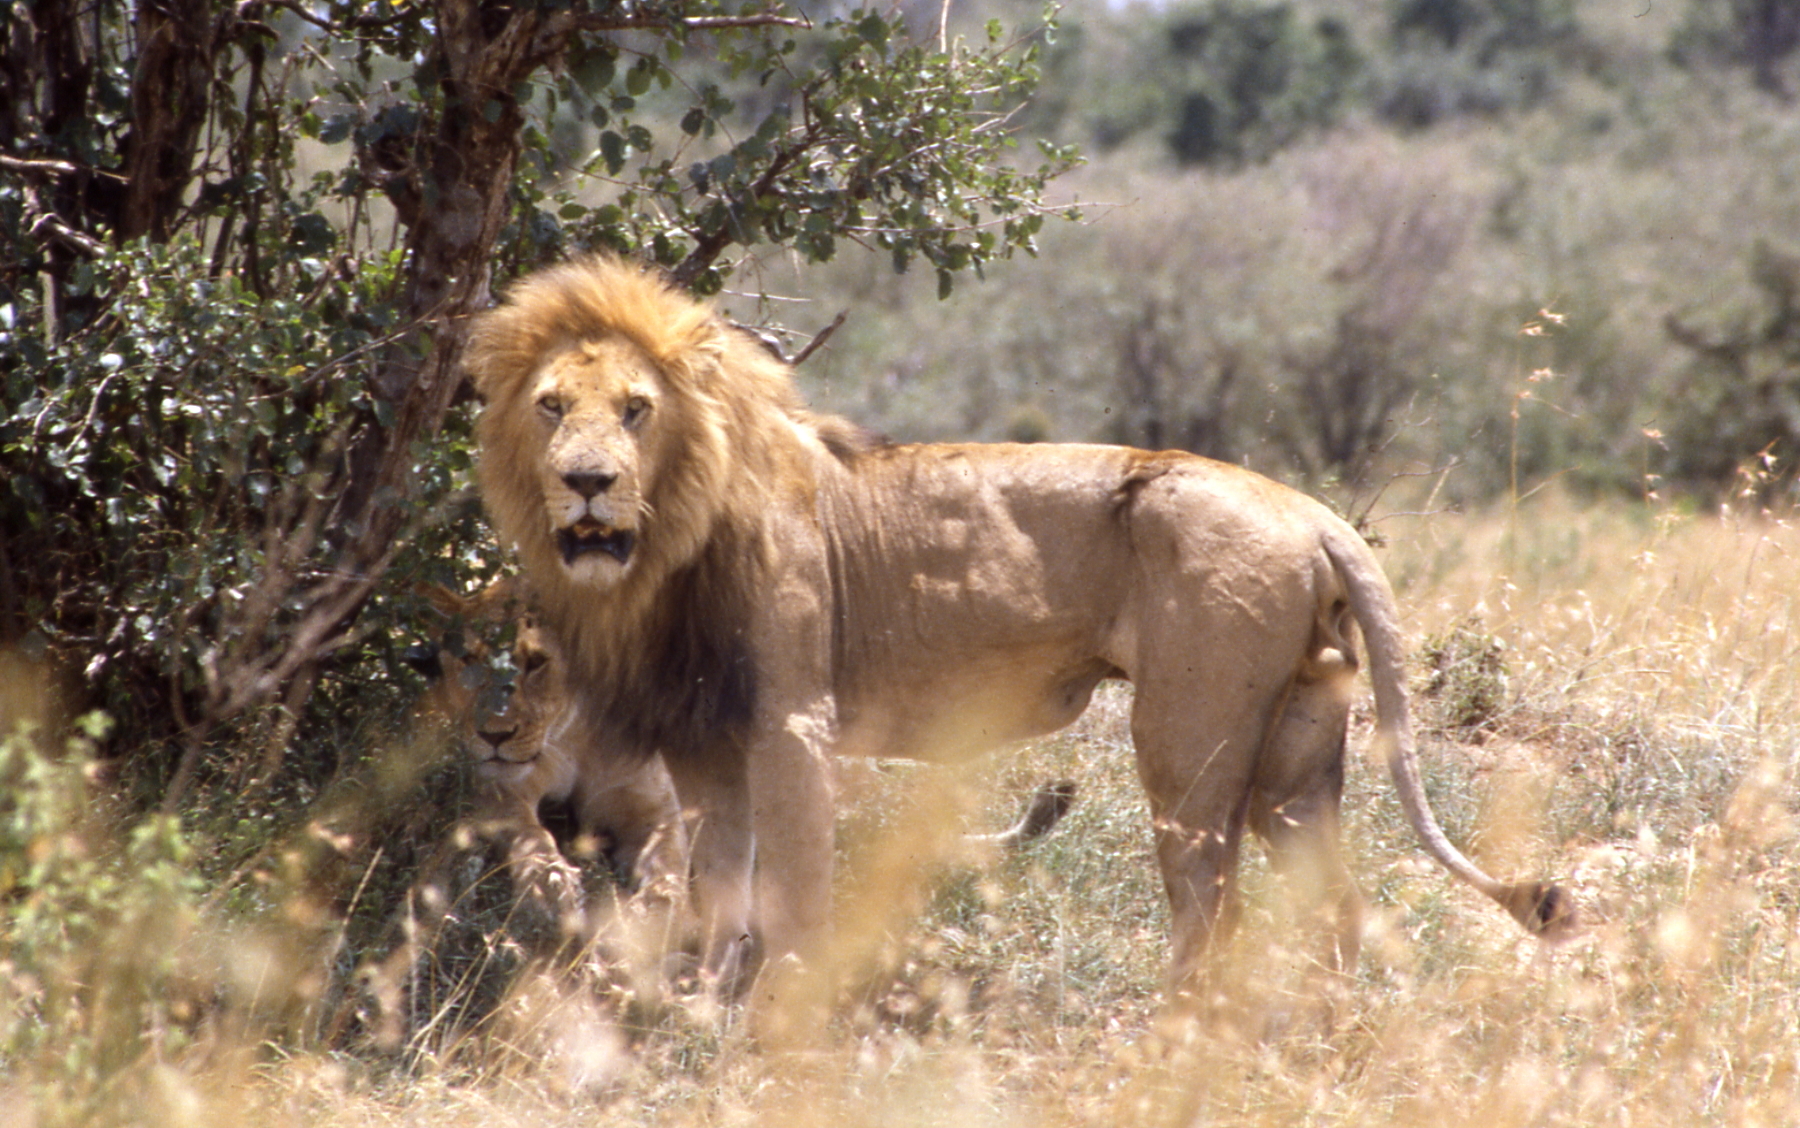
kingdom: Animalia
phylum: Chordata
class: Mammalia
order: Carnivora
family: Felidae
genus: Panthera
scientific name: Panthera leo
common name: Lion
